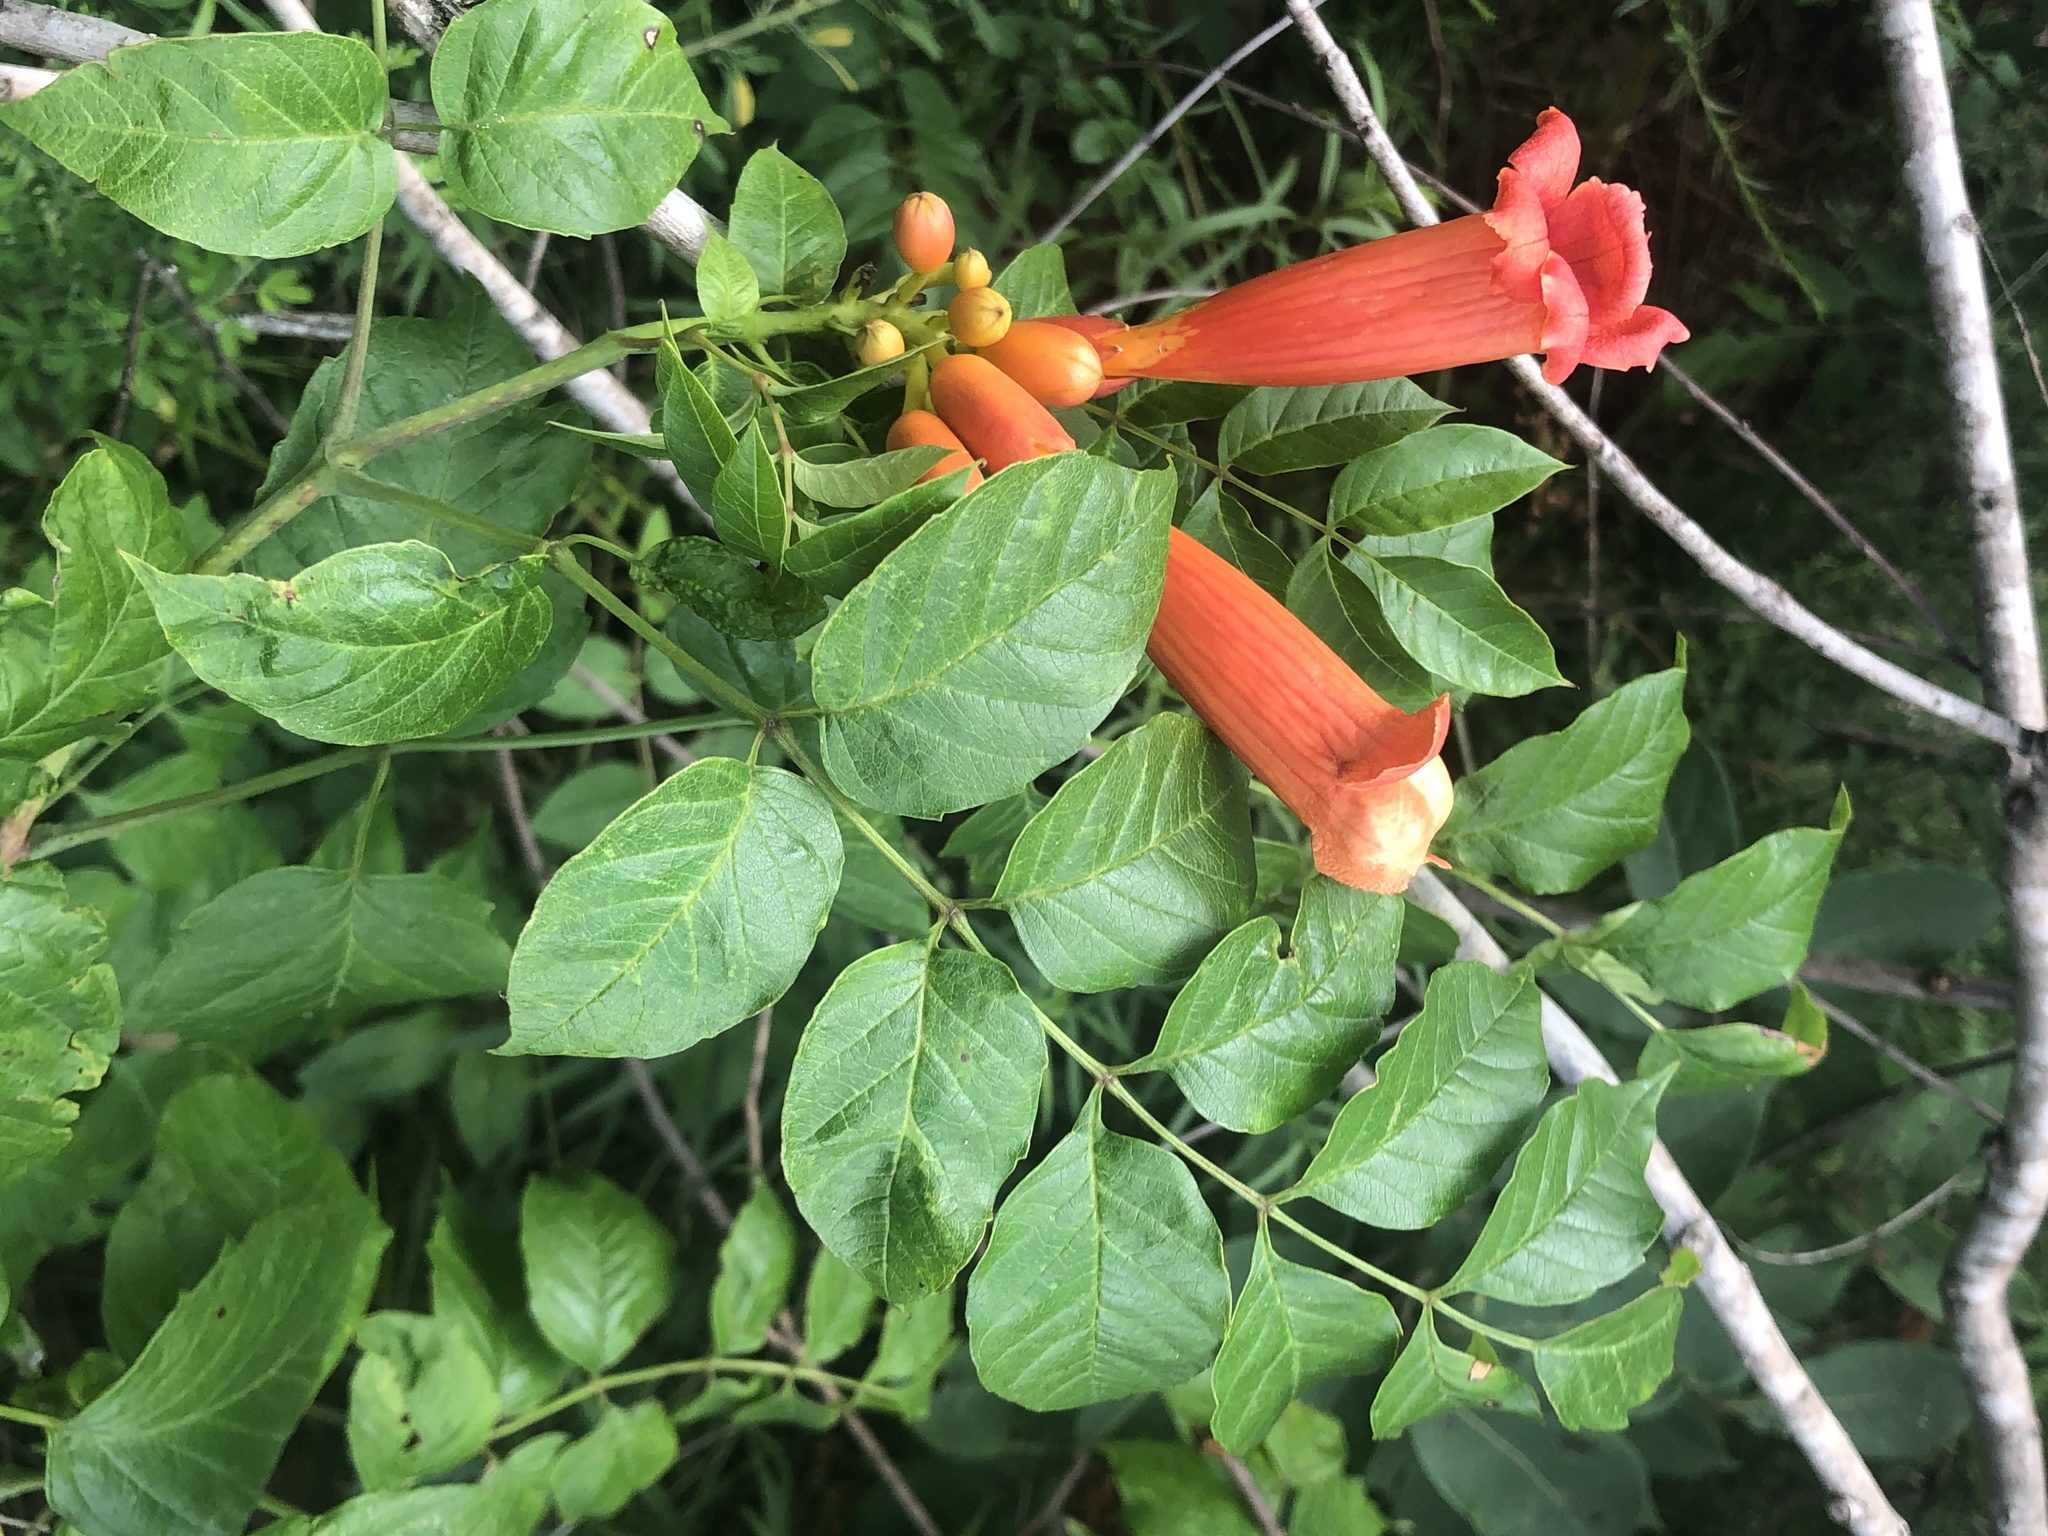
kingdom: Plantae
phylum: Tracheophyta
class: Magnoliopsida
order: Lamiales
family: Bignoniaceae
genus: Campsis
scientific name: Campsis radicans
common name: Trumpet-creeper
